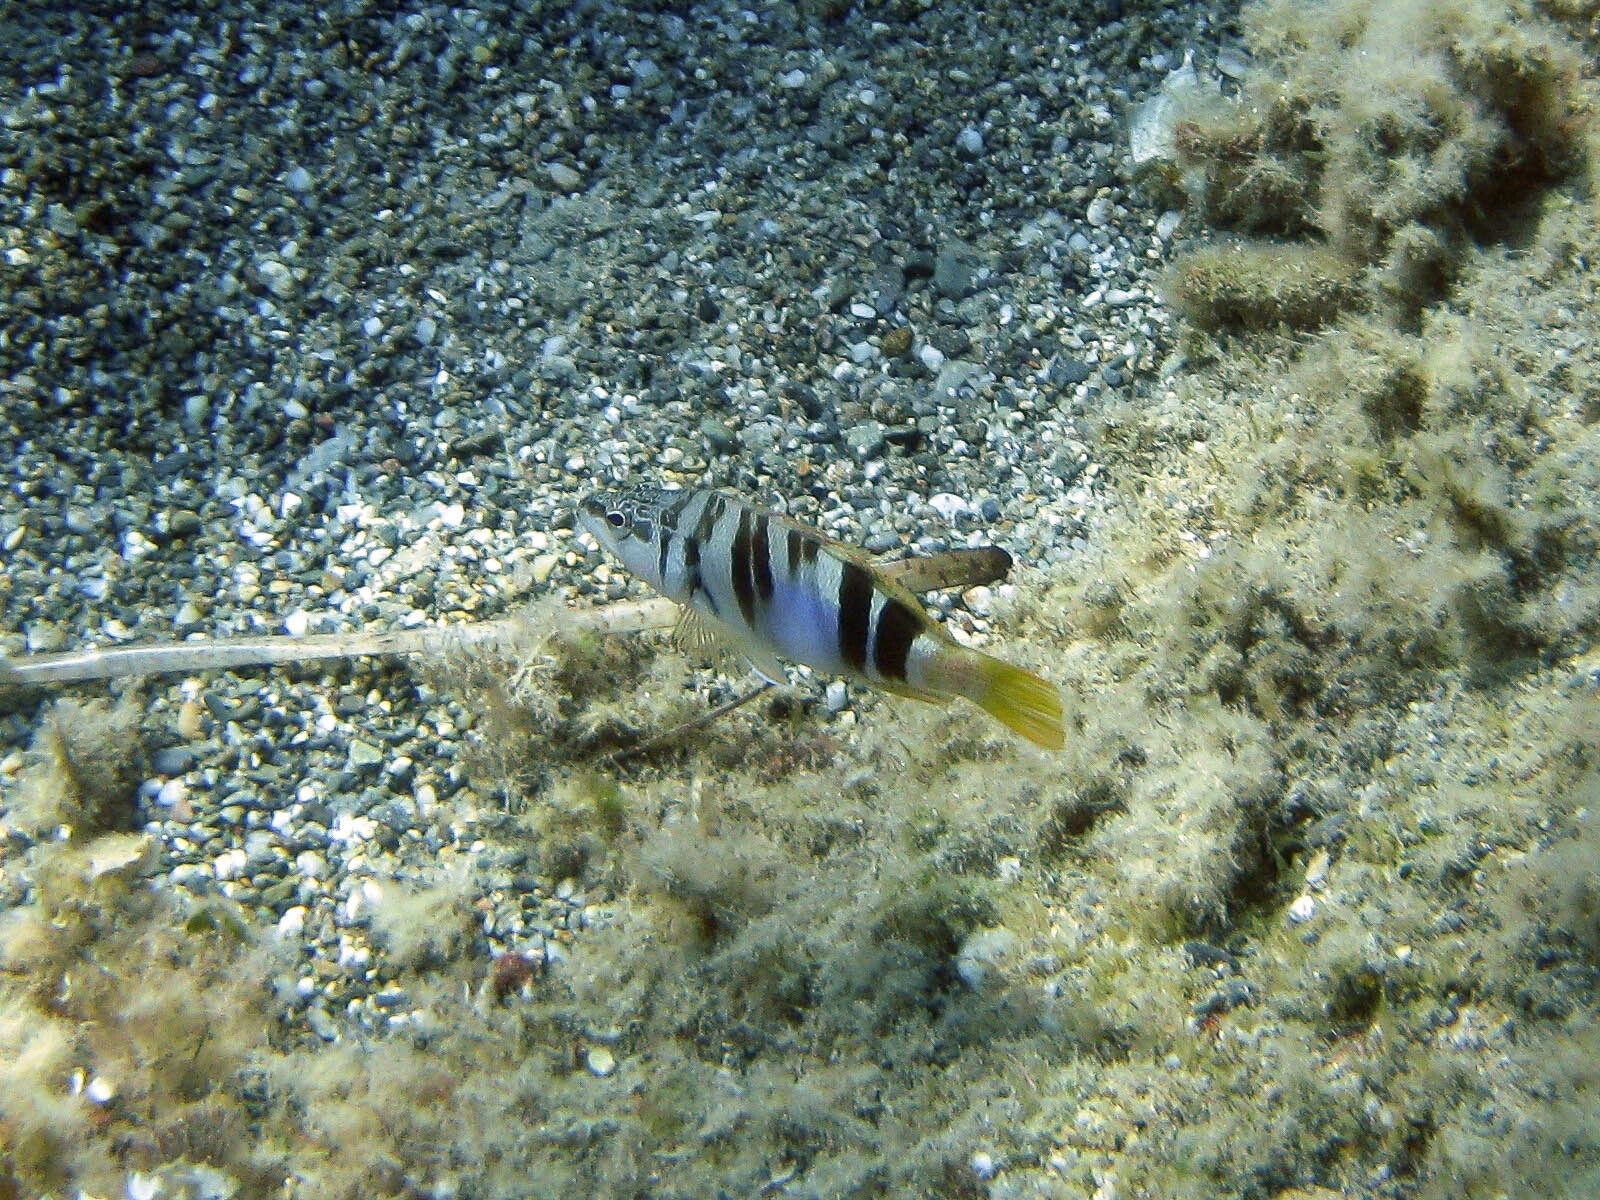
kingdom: Animalia
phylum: Chordata
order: Perciformes
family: Serranidae
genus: Serranus
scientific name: Serranus scriba
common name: Painted comber
